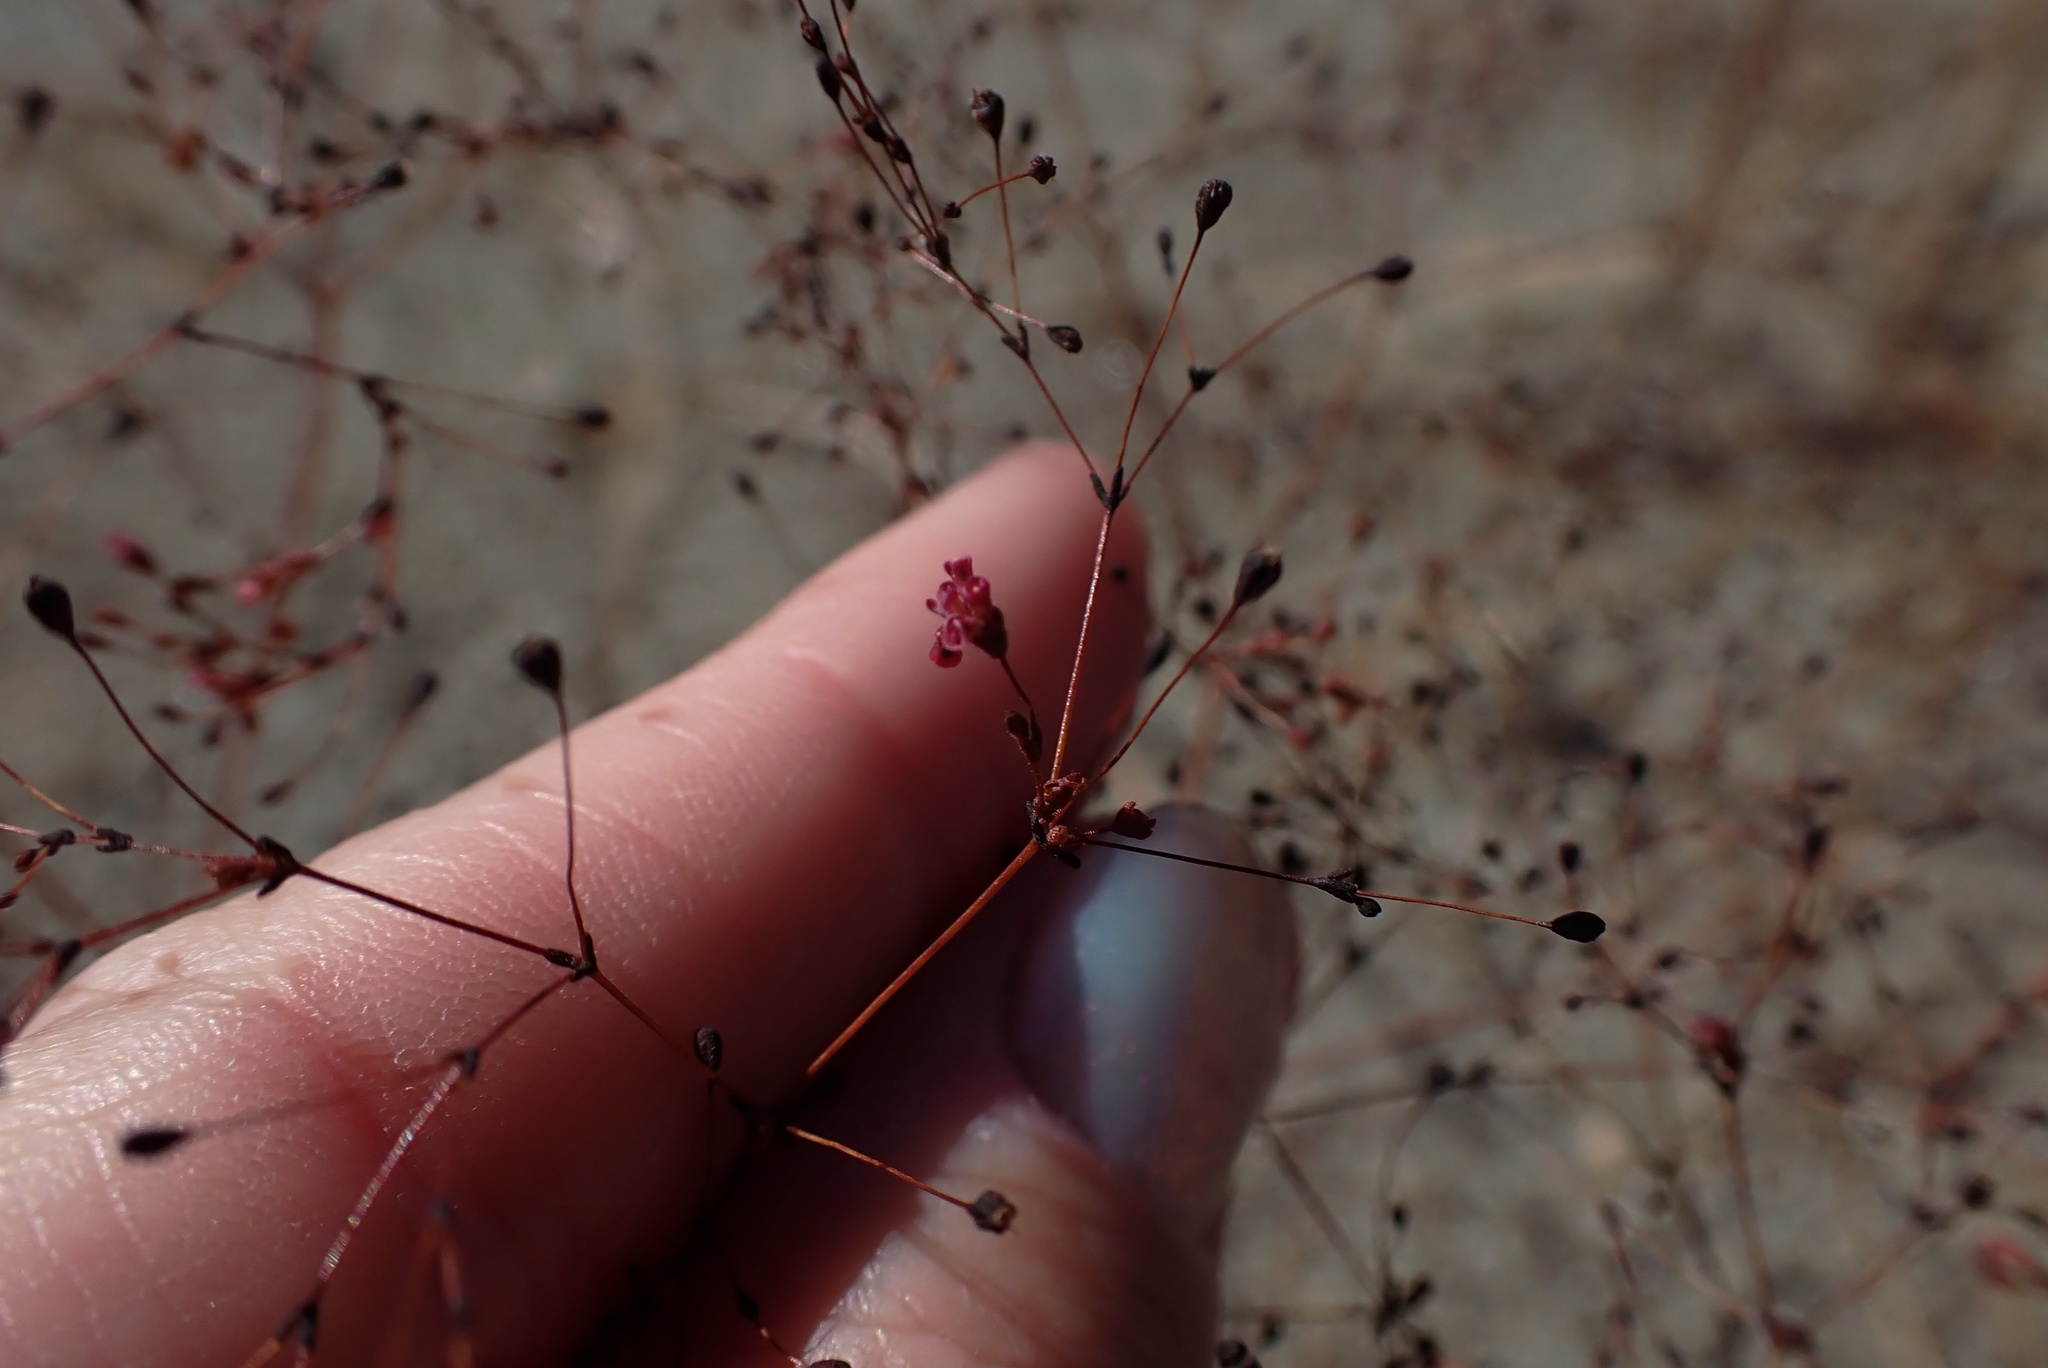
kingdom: Plantae
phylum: Tracheophyta
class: Magnoliopsida
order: Caryophyllales
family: Polygonaceae
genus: Eriogonum
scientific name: Eriogonum thurberi
